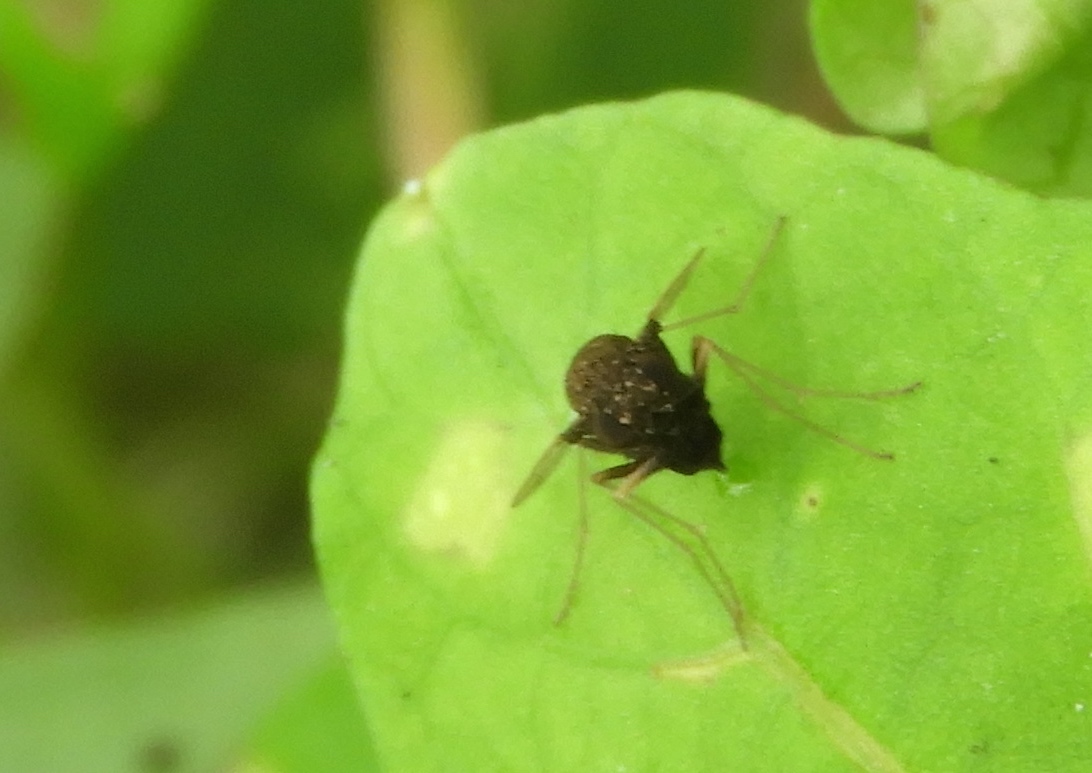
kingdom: Animalia
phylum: Arthropoda
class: Insecta
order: Diptera
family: Rhagionidae
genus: Chrysopilus
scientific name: Chrysopilus basilaris
